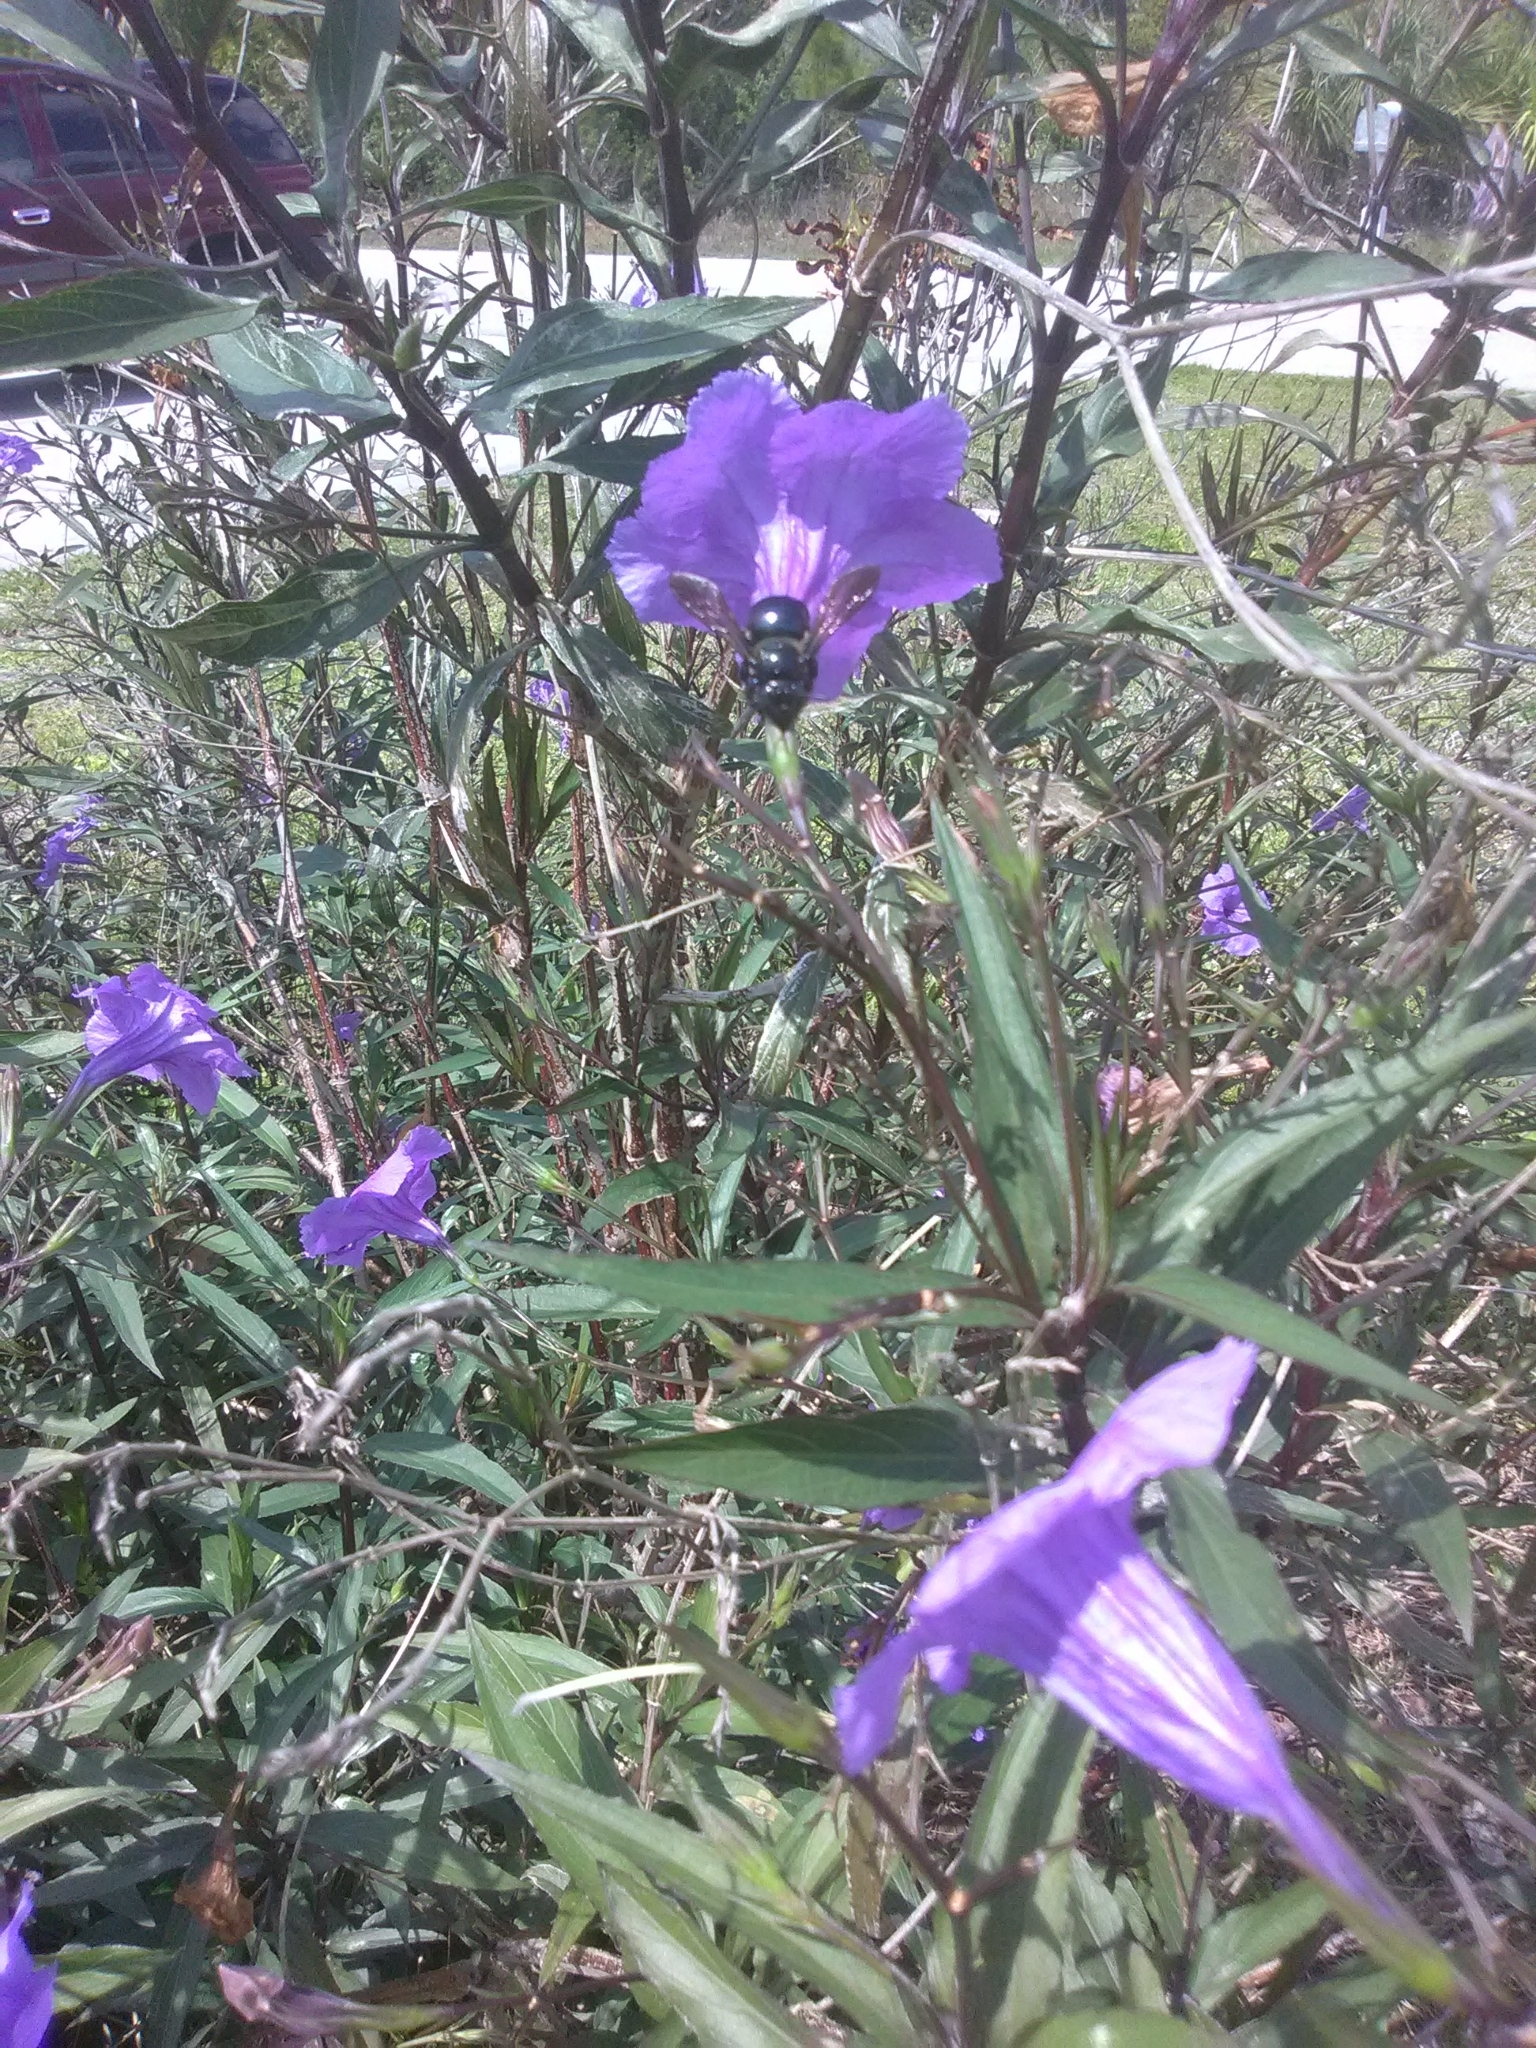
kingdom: Animalia
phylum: Arthropoda
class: Insecta
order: Hymenoptera
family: Apidae
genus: Xylocopa
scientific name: Xylocopa micans
